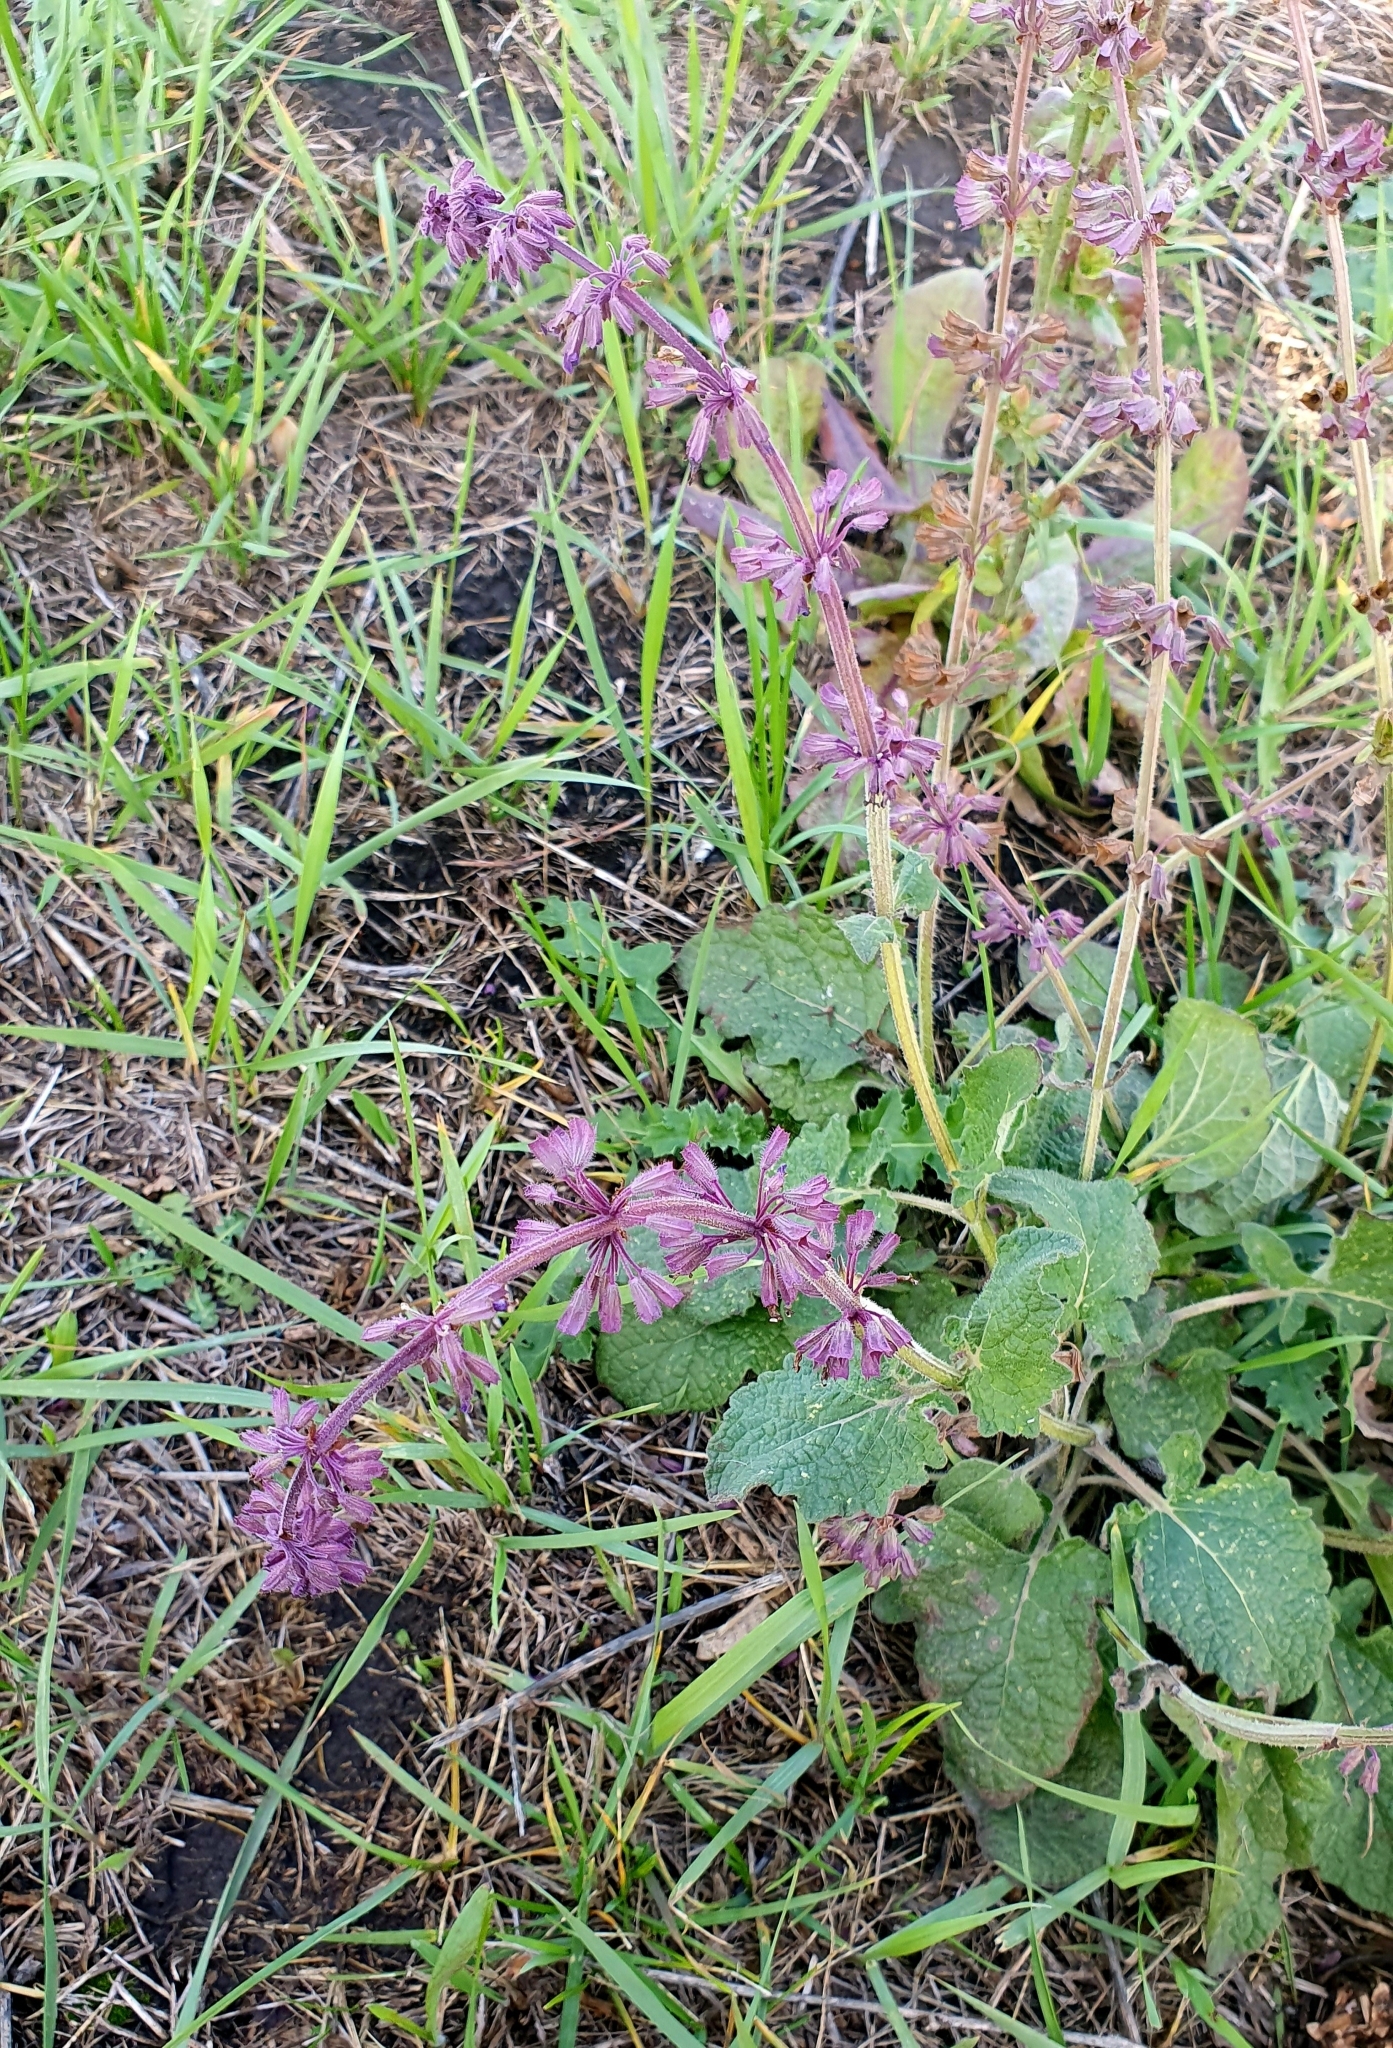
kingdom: Plantae
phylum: Tracheophyta
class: Magnoliopsida
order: Lamiales
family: Lamiaceae
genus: Salvia
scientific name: Salvia verticillata
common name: Whorled clary
